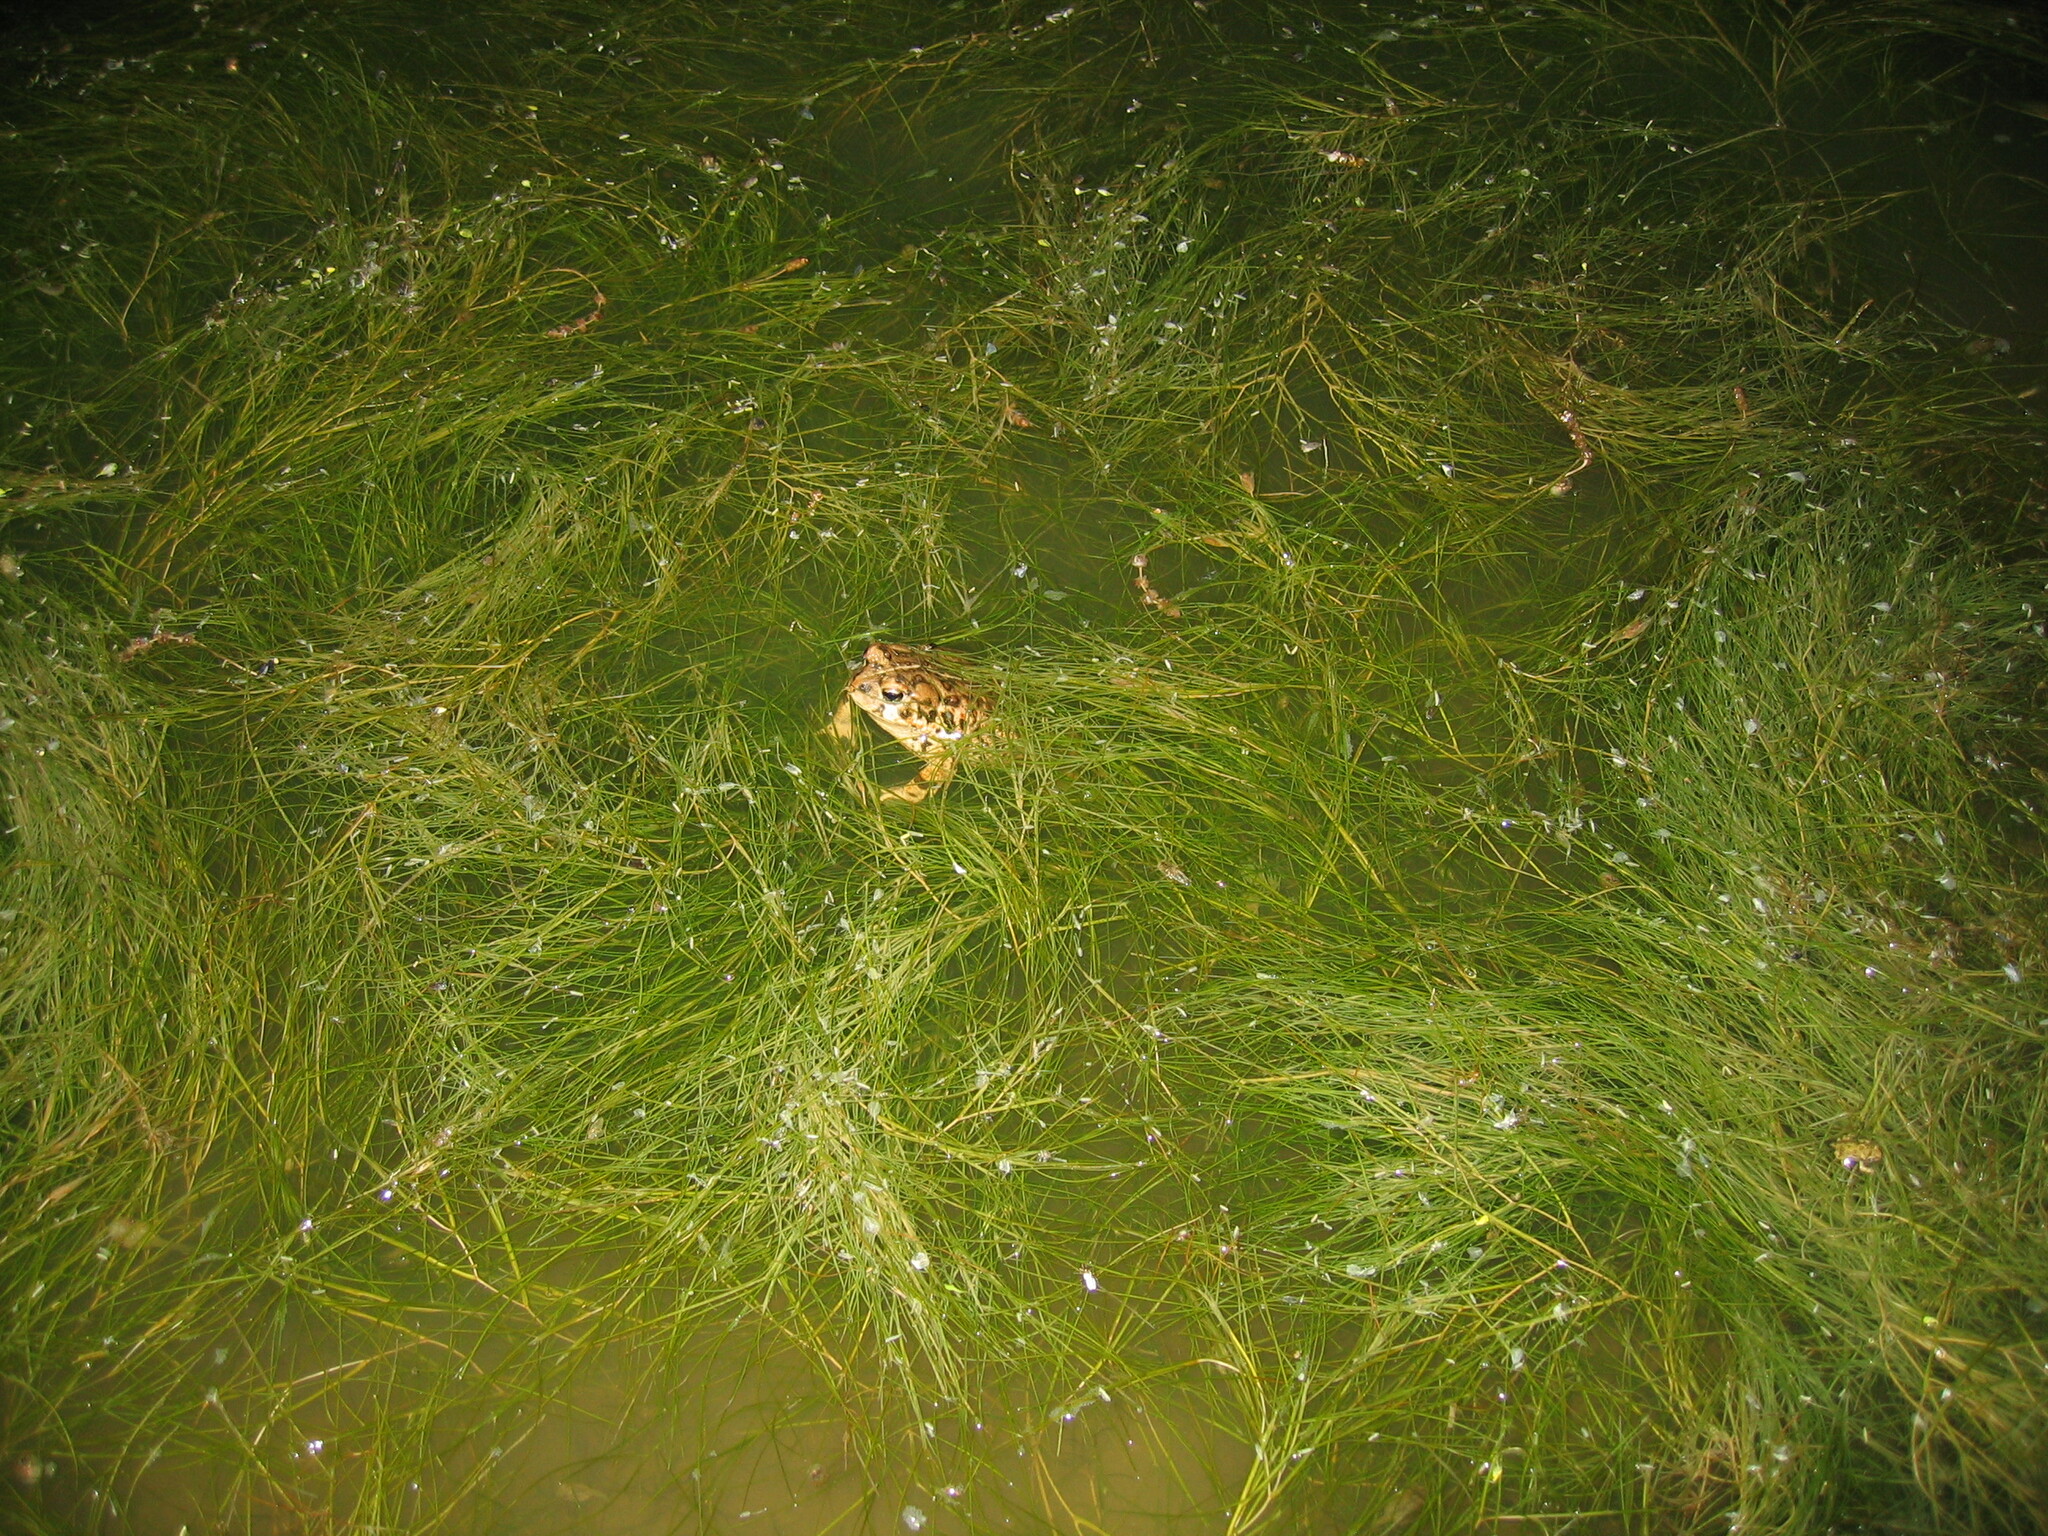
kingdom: Animalia
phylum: Chordata
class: Amphibia
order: Anura
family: Bufonidae
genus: Anaxyrus
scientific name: Anaxyrus boreas
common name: Western toad
